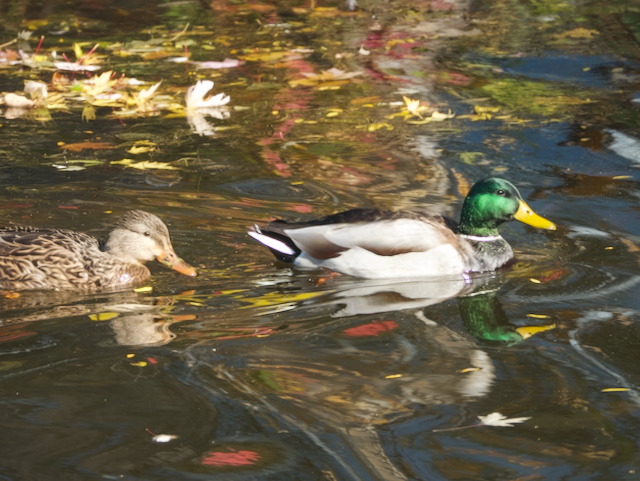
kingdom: Animalia
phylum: Chordata
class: Aves
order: Anseriformes
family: Anatidae
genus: Anas
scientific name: Anas platyrhynchos
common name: Mallard
